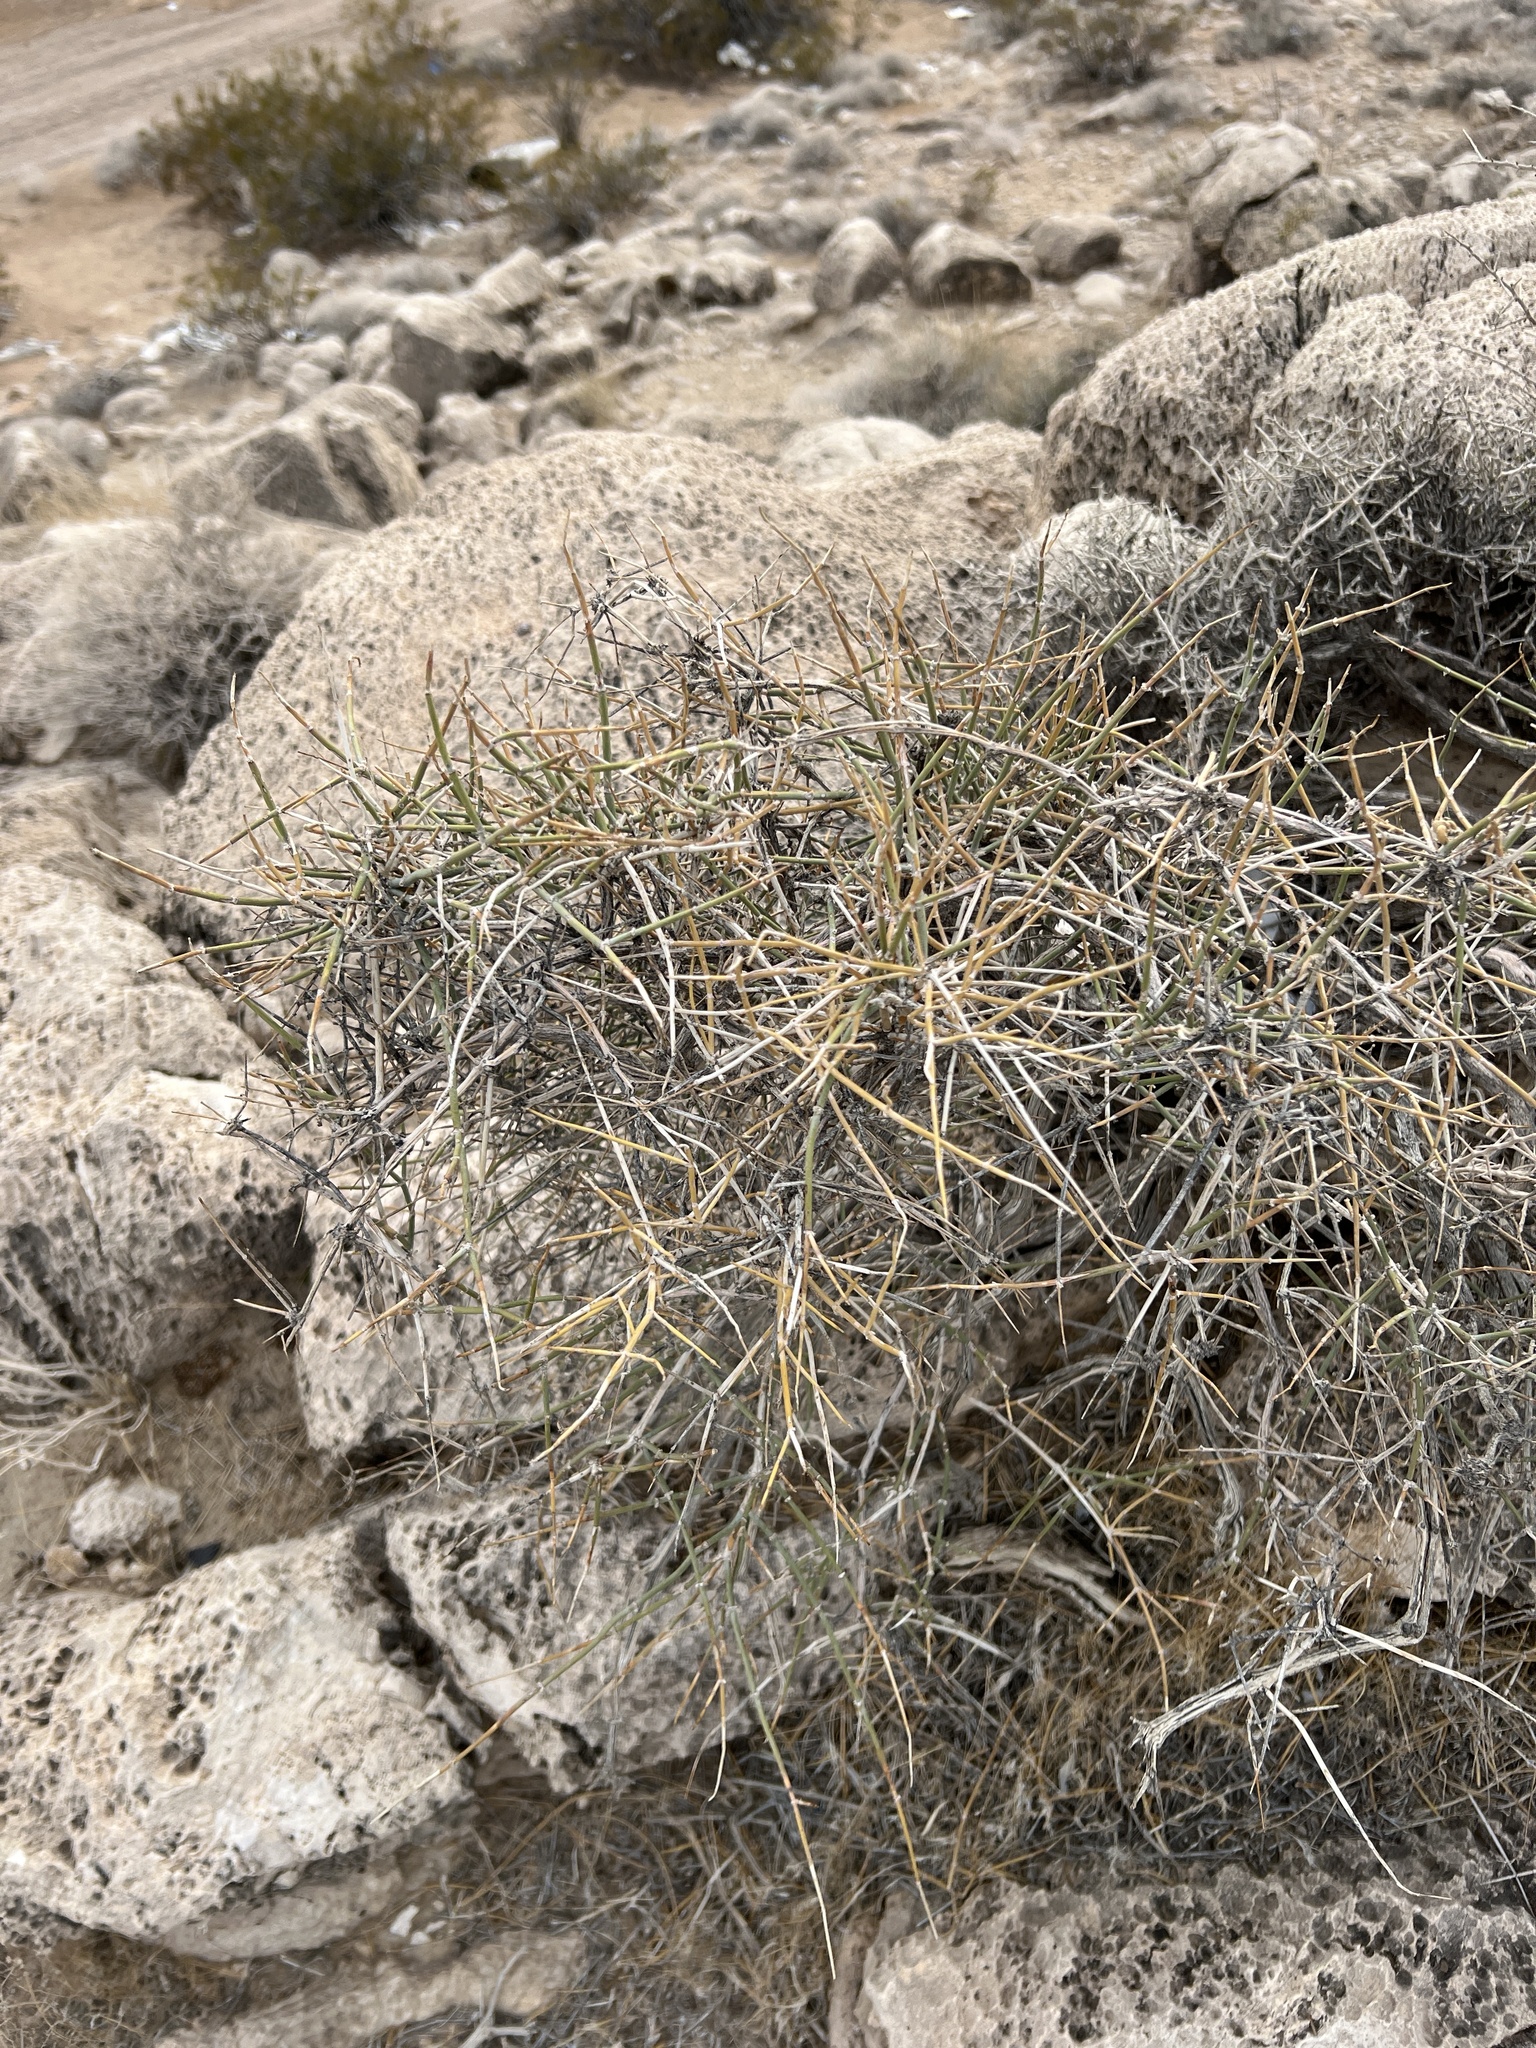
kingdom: Plantae
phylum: Tracheophyta
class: Gnetopsida
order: Ephedrales
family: Ephedraceae
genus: Ephedra
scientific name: Ephedra nevadensis
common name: Gray ephedra
